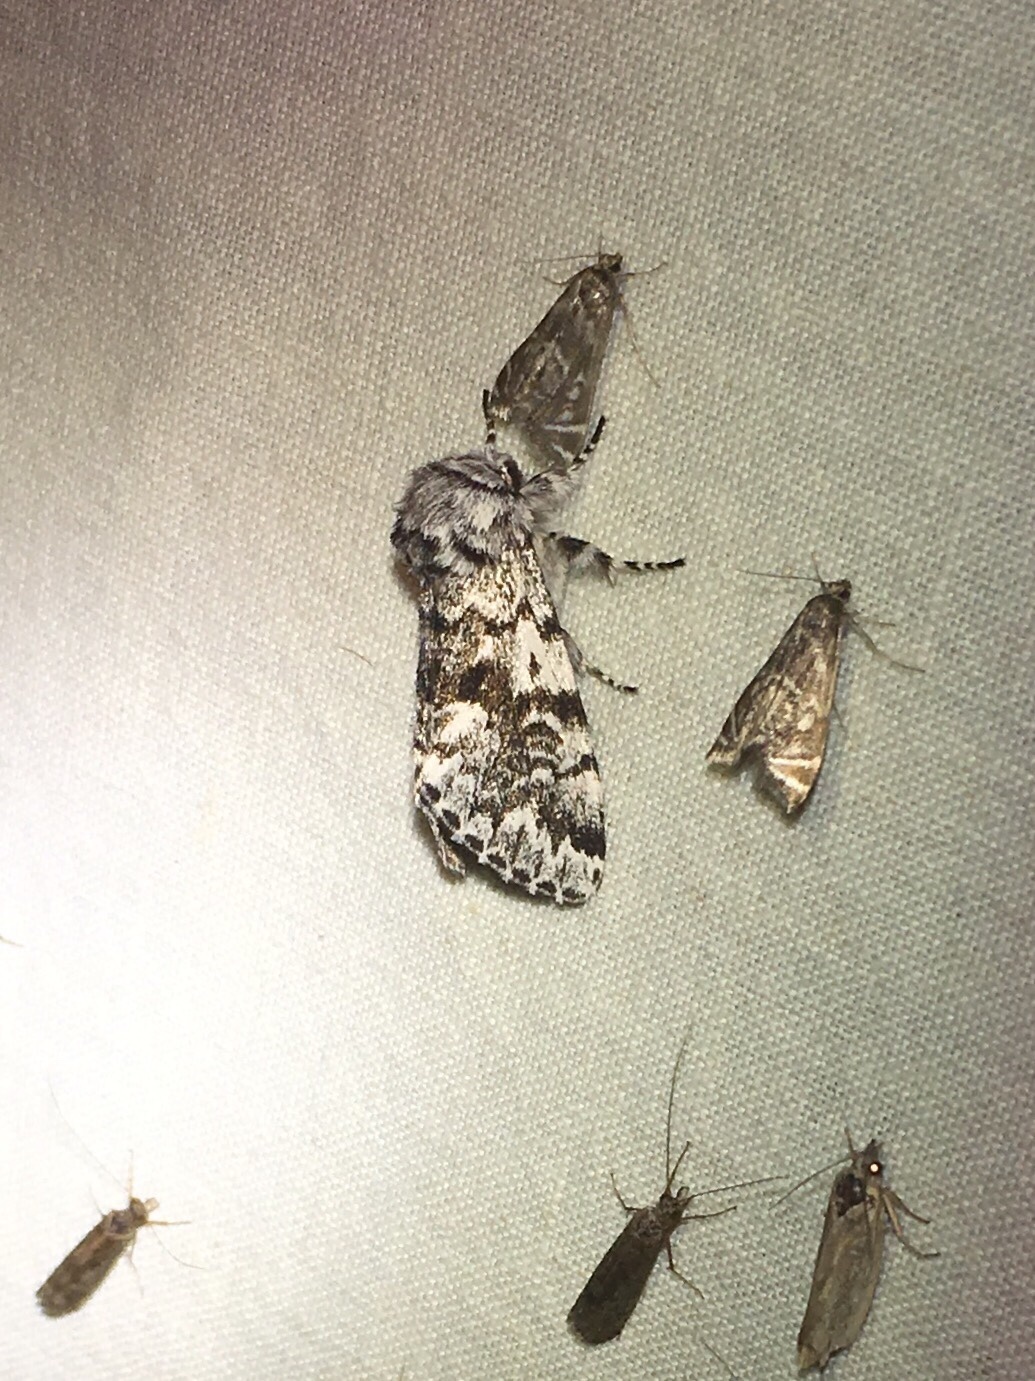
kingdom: Animalia
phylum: Arthropoda
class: Insecta
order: Lepidoptera
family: Noctuidae
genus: Panthea
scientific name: Panthea acronyctoides
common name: Black zigzag moth
